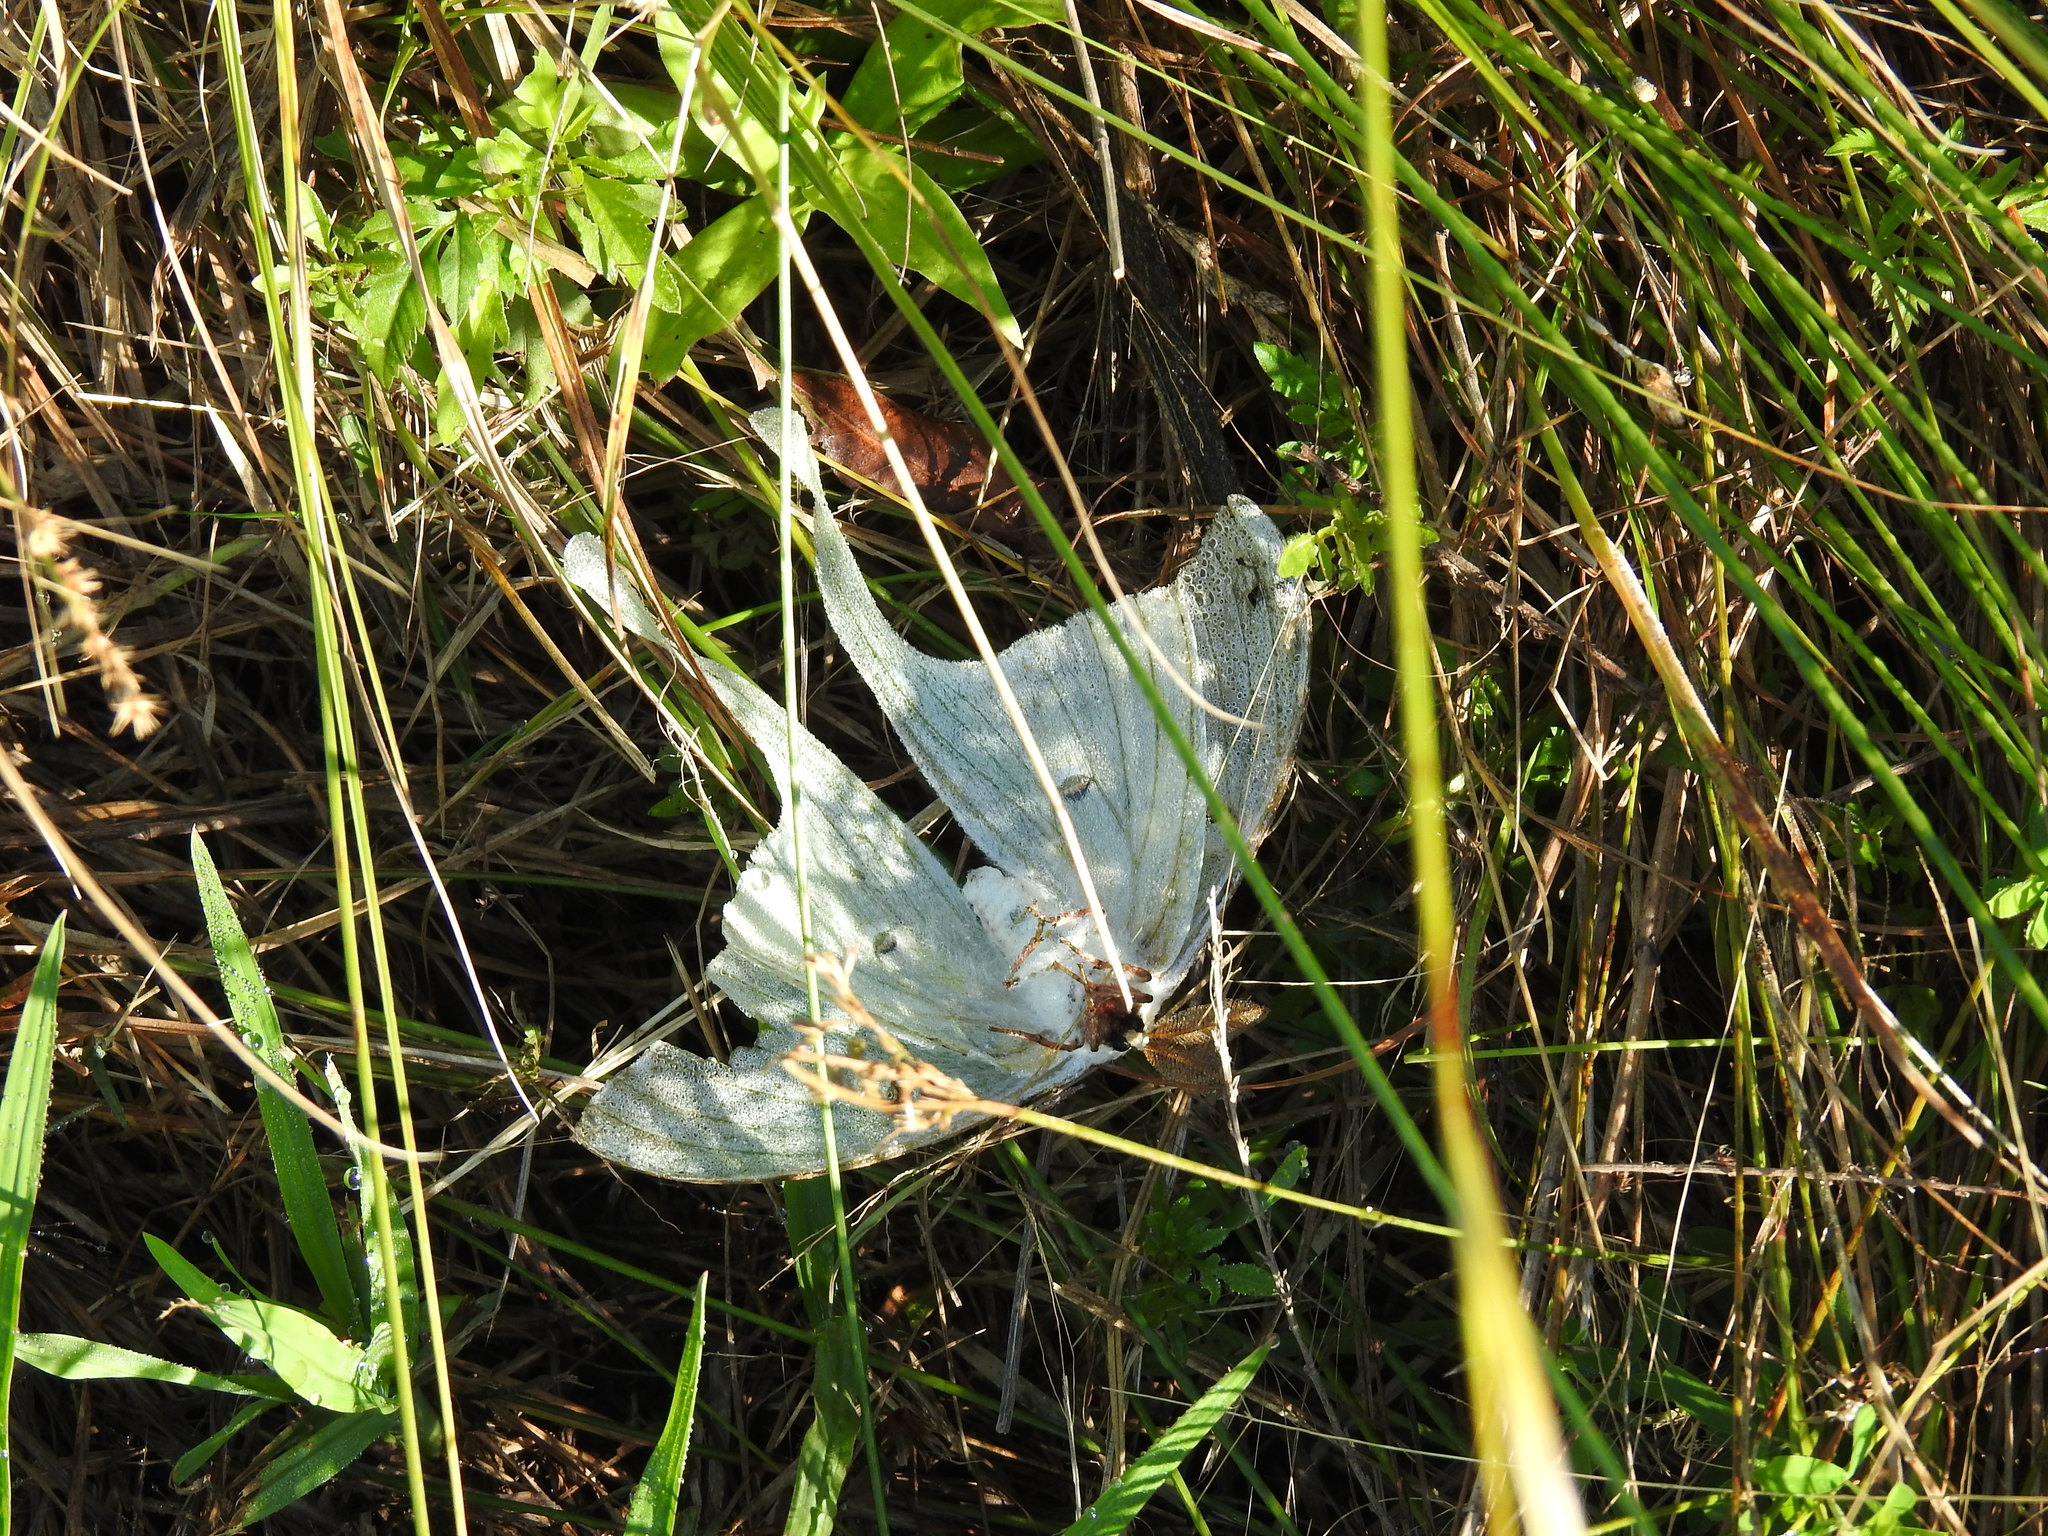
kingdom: Animalia
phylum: Arthropoda
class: Insecta
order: Lepidoptera
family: Saturniidae
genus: Actias
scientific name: Actias luna
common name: Luna moth
